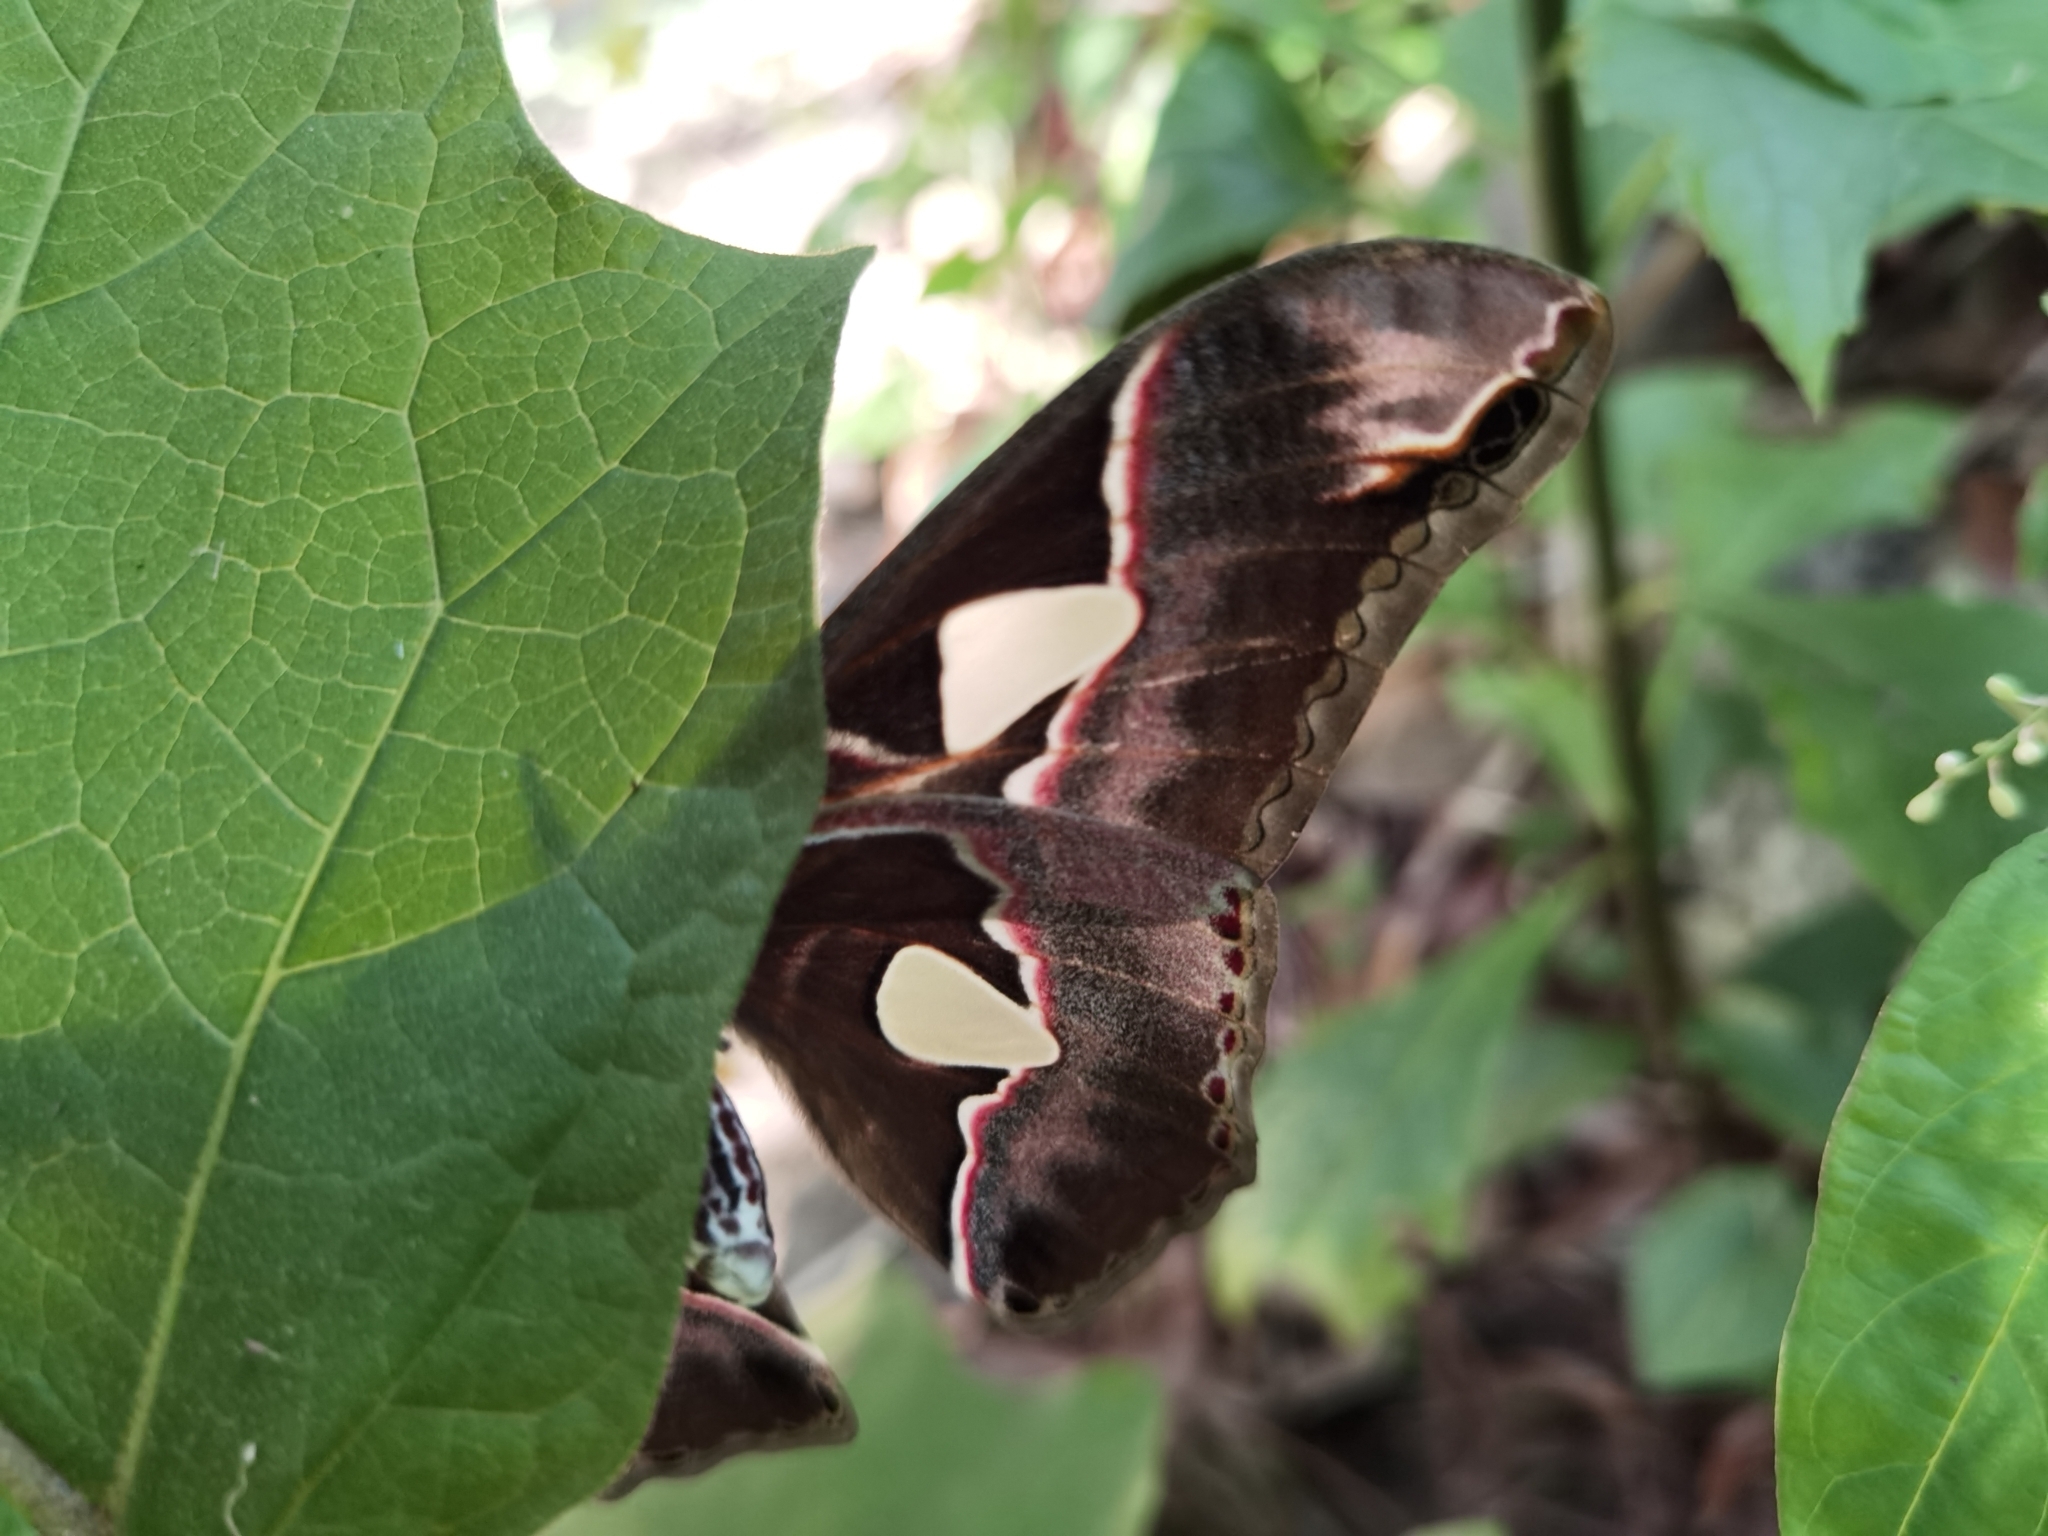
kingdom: Animalia
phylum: Arthropoda
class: Insecta
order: Lepidoptera
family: Saturniidae
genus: Rothschildia
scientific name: Rothschildia lebeau
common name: Lebeau's rothschildia
